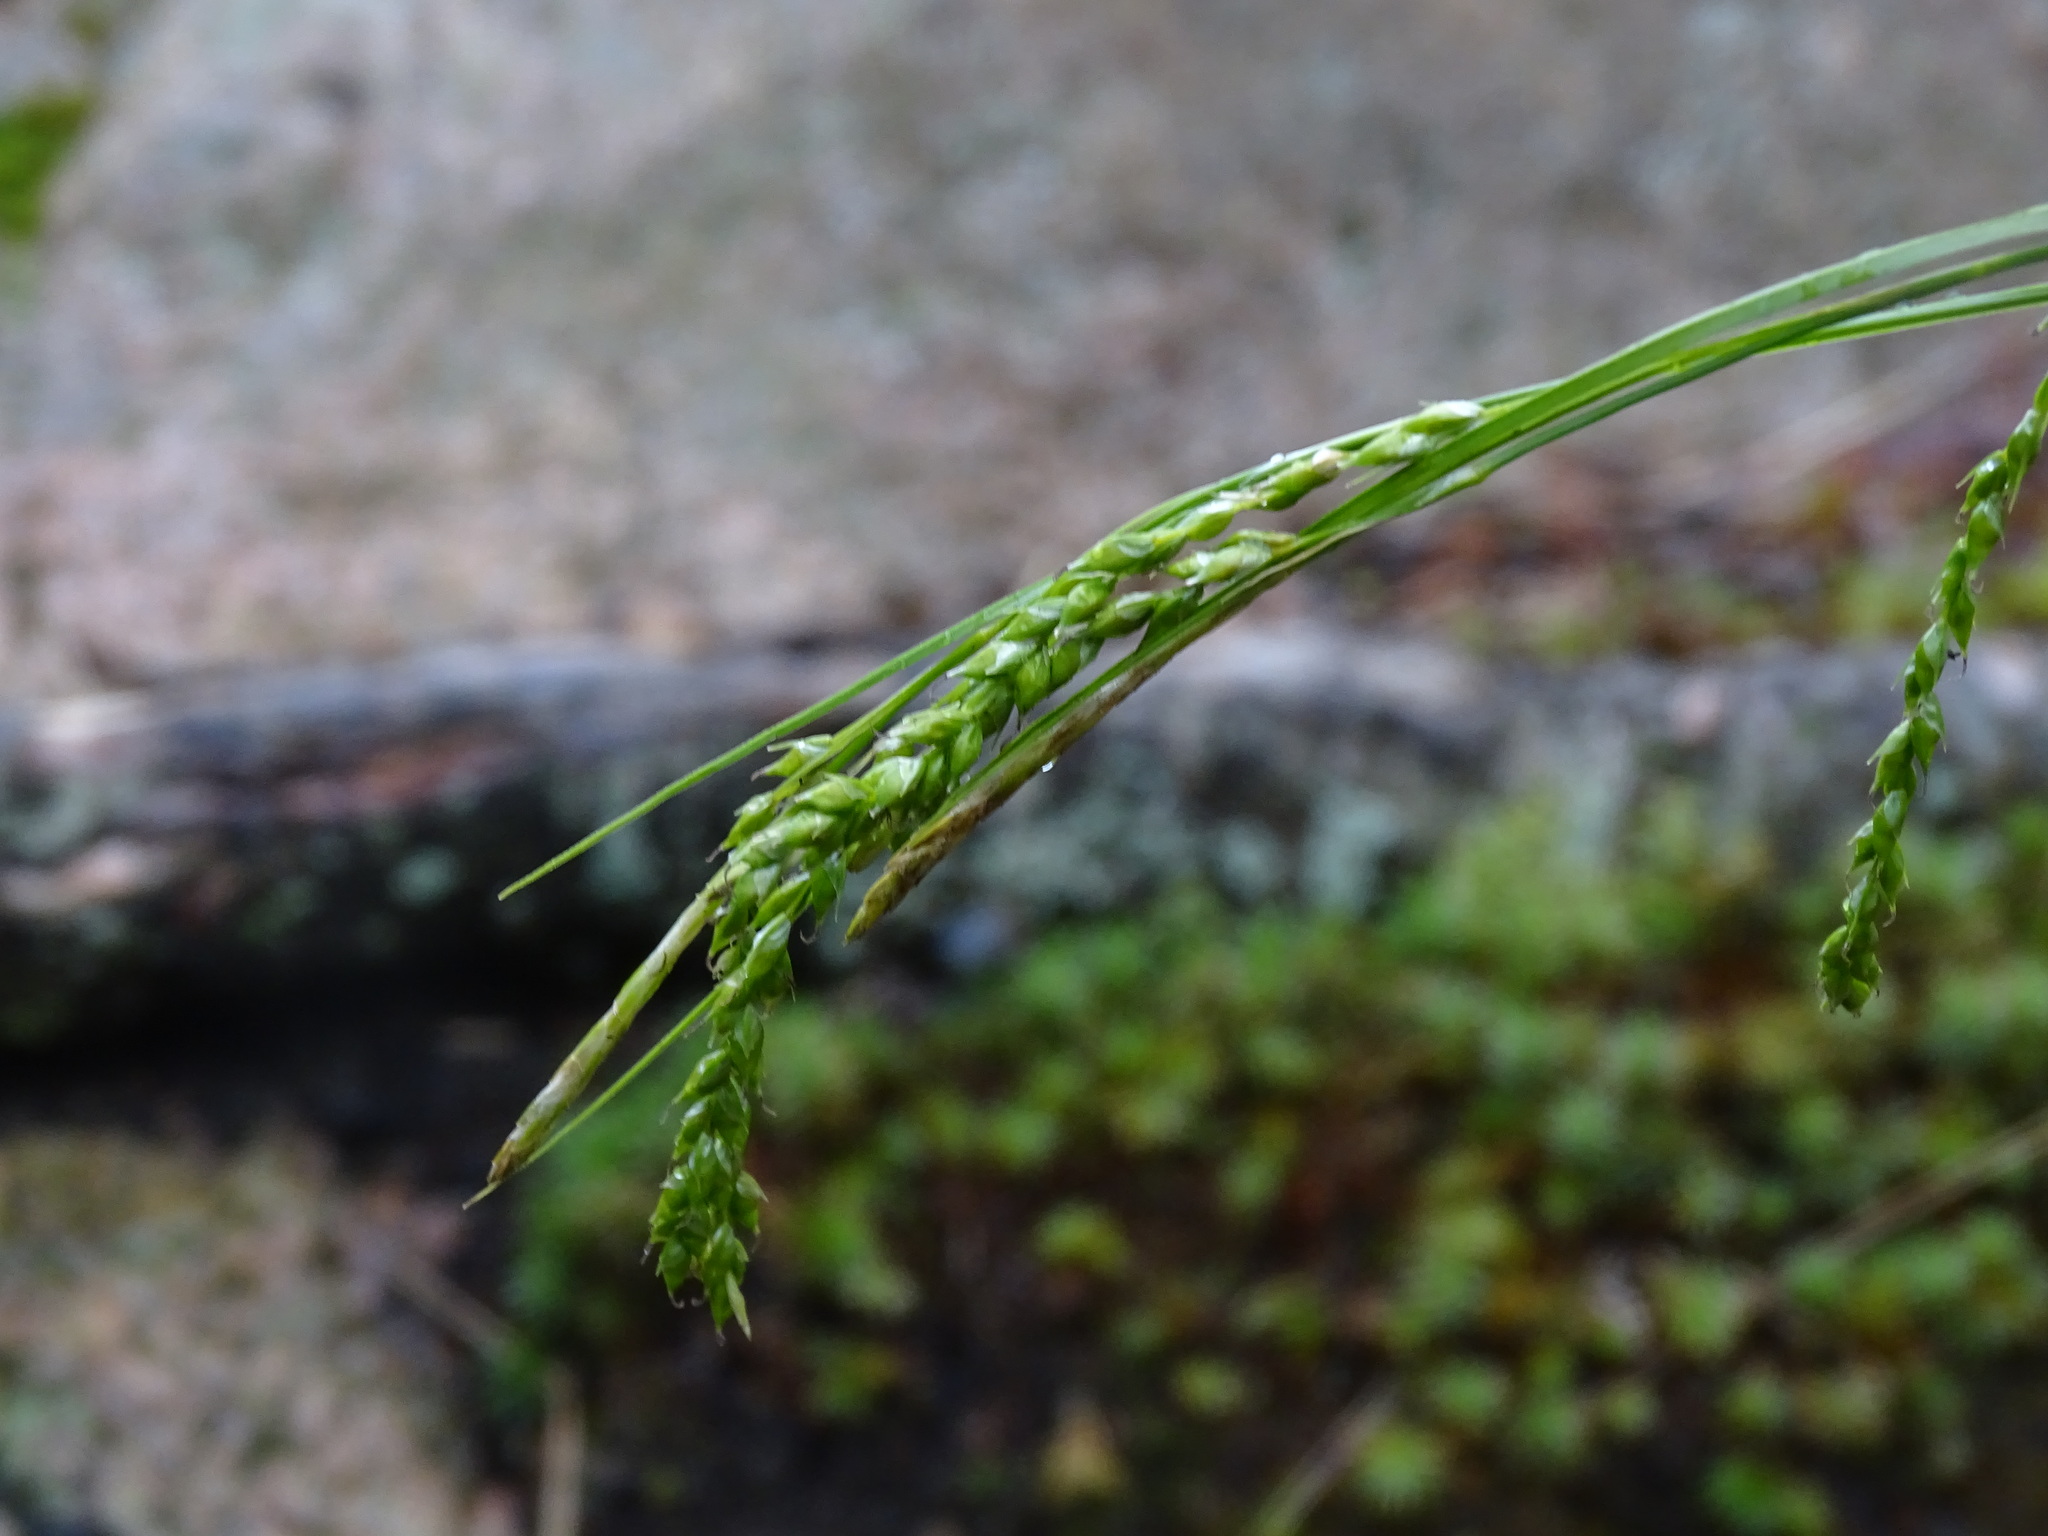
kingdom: Plantae
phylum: Tracheophyta
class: Liliopsida
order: Poales
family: Cyperaceae
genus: Carex
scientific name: Carex arctata
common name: Black sedge
